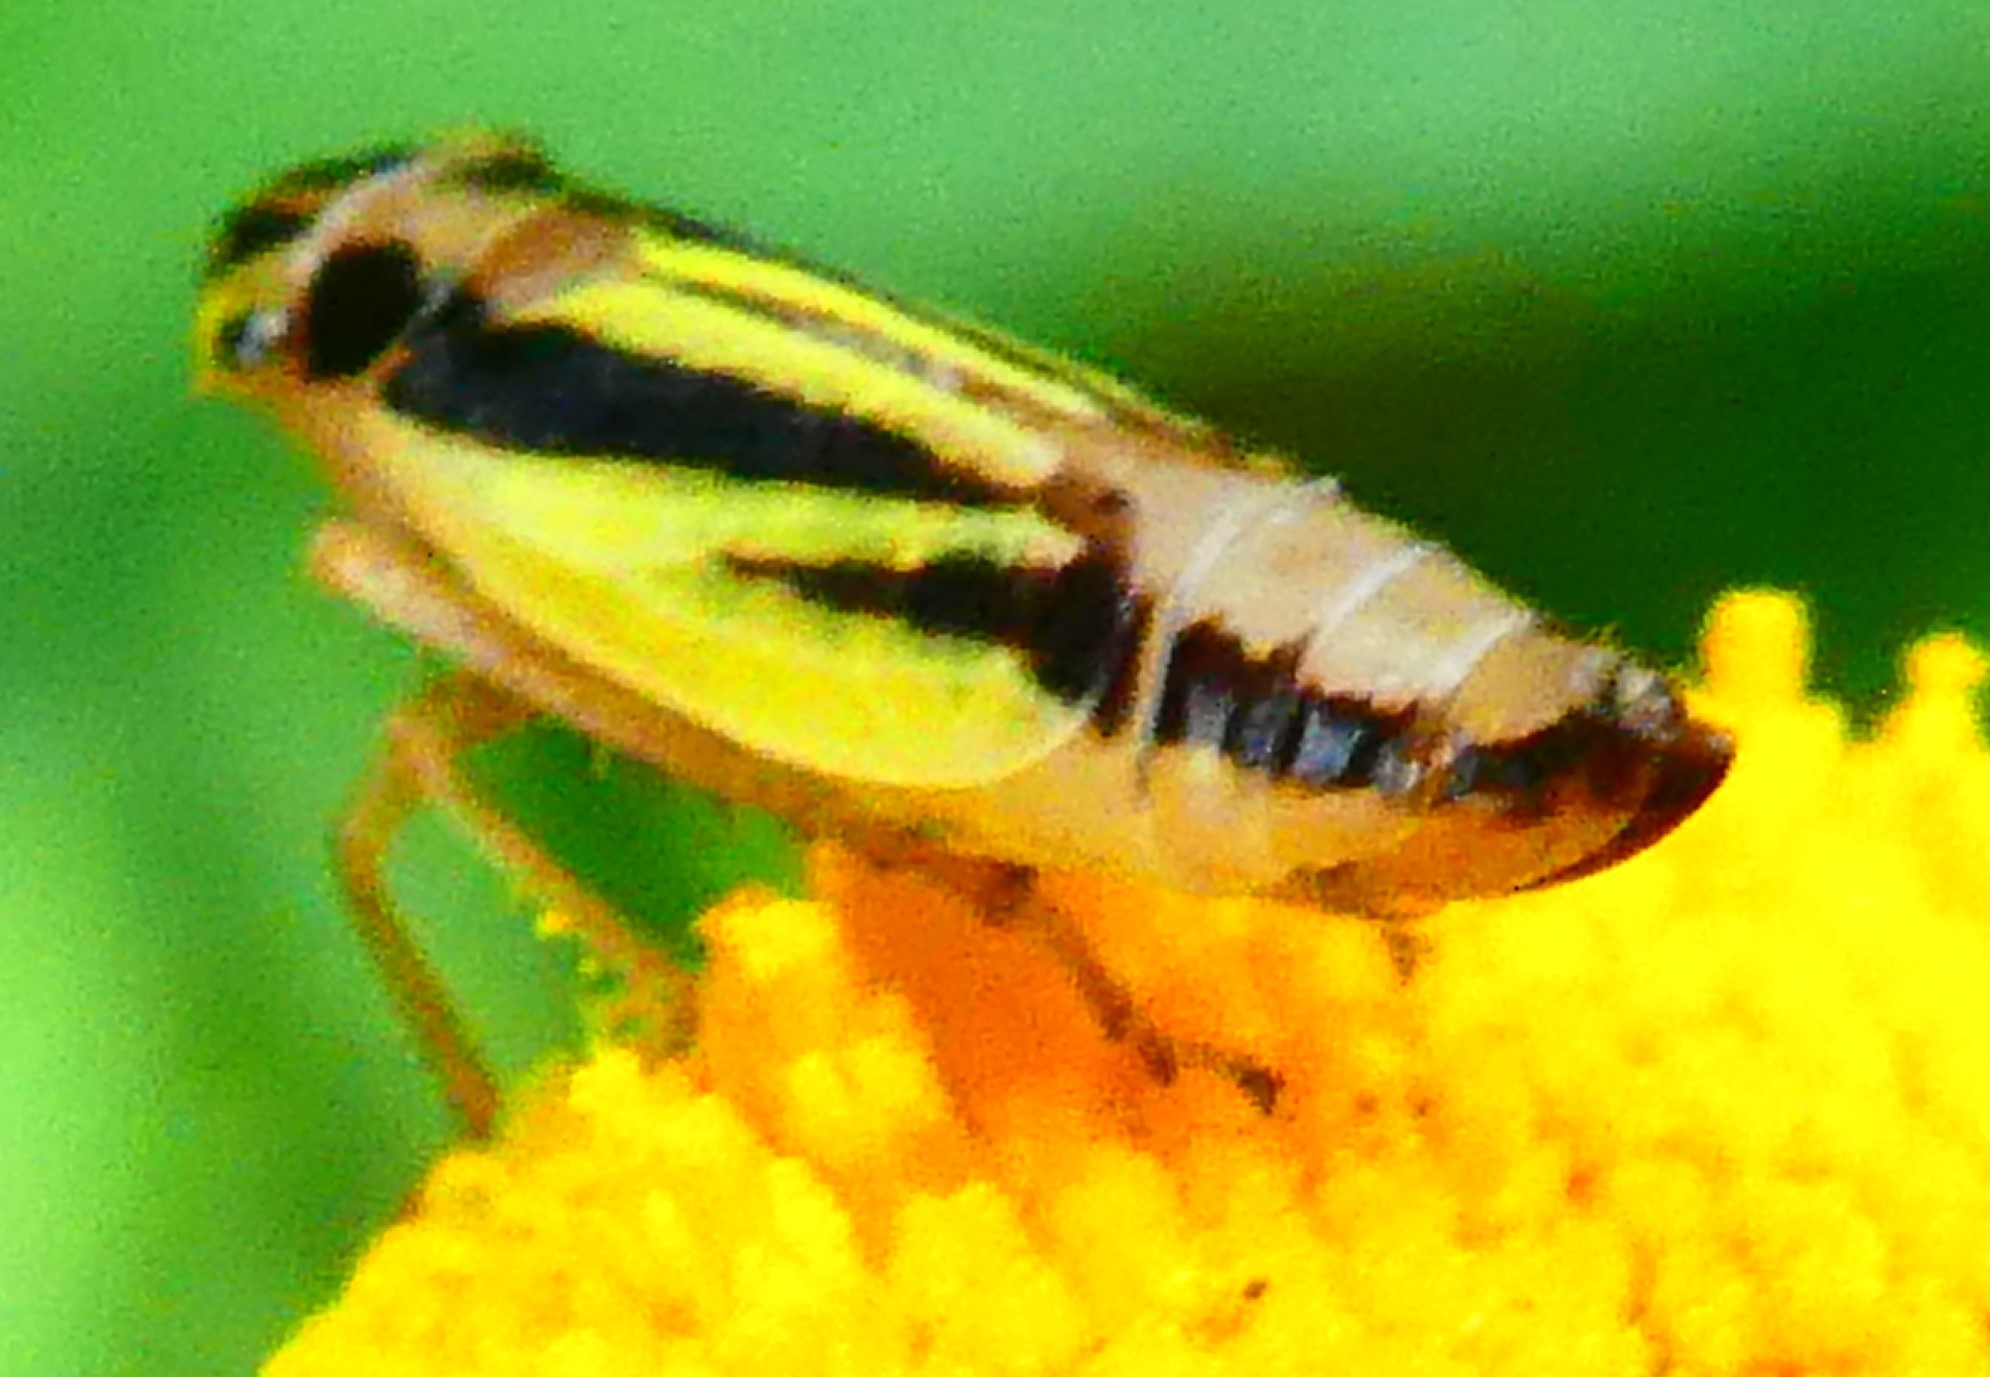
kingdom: Animalia
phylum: Arthropoda
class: Insecta
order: Hemiptera
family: Cicadellidae
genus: Evacanthus
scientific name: Evacanthus interruptus
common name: Leafhopper
